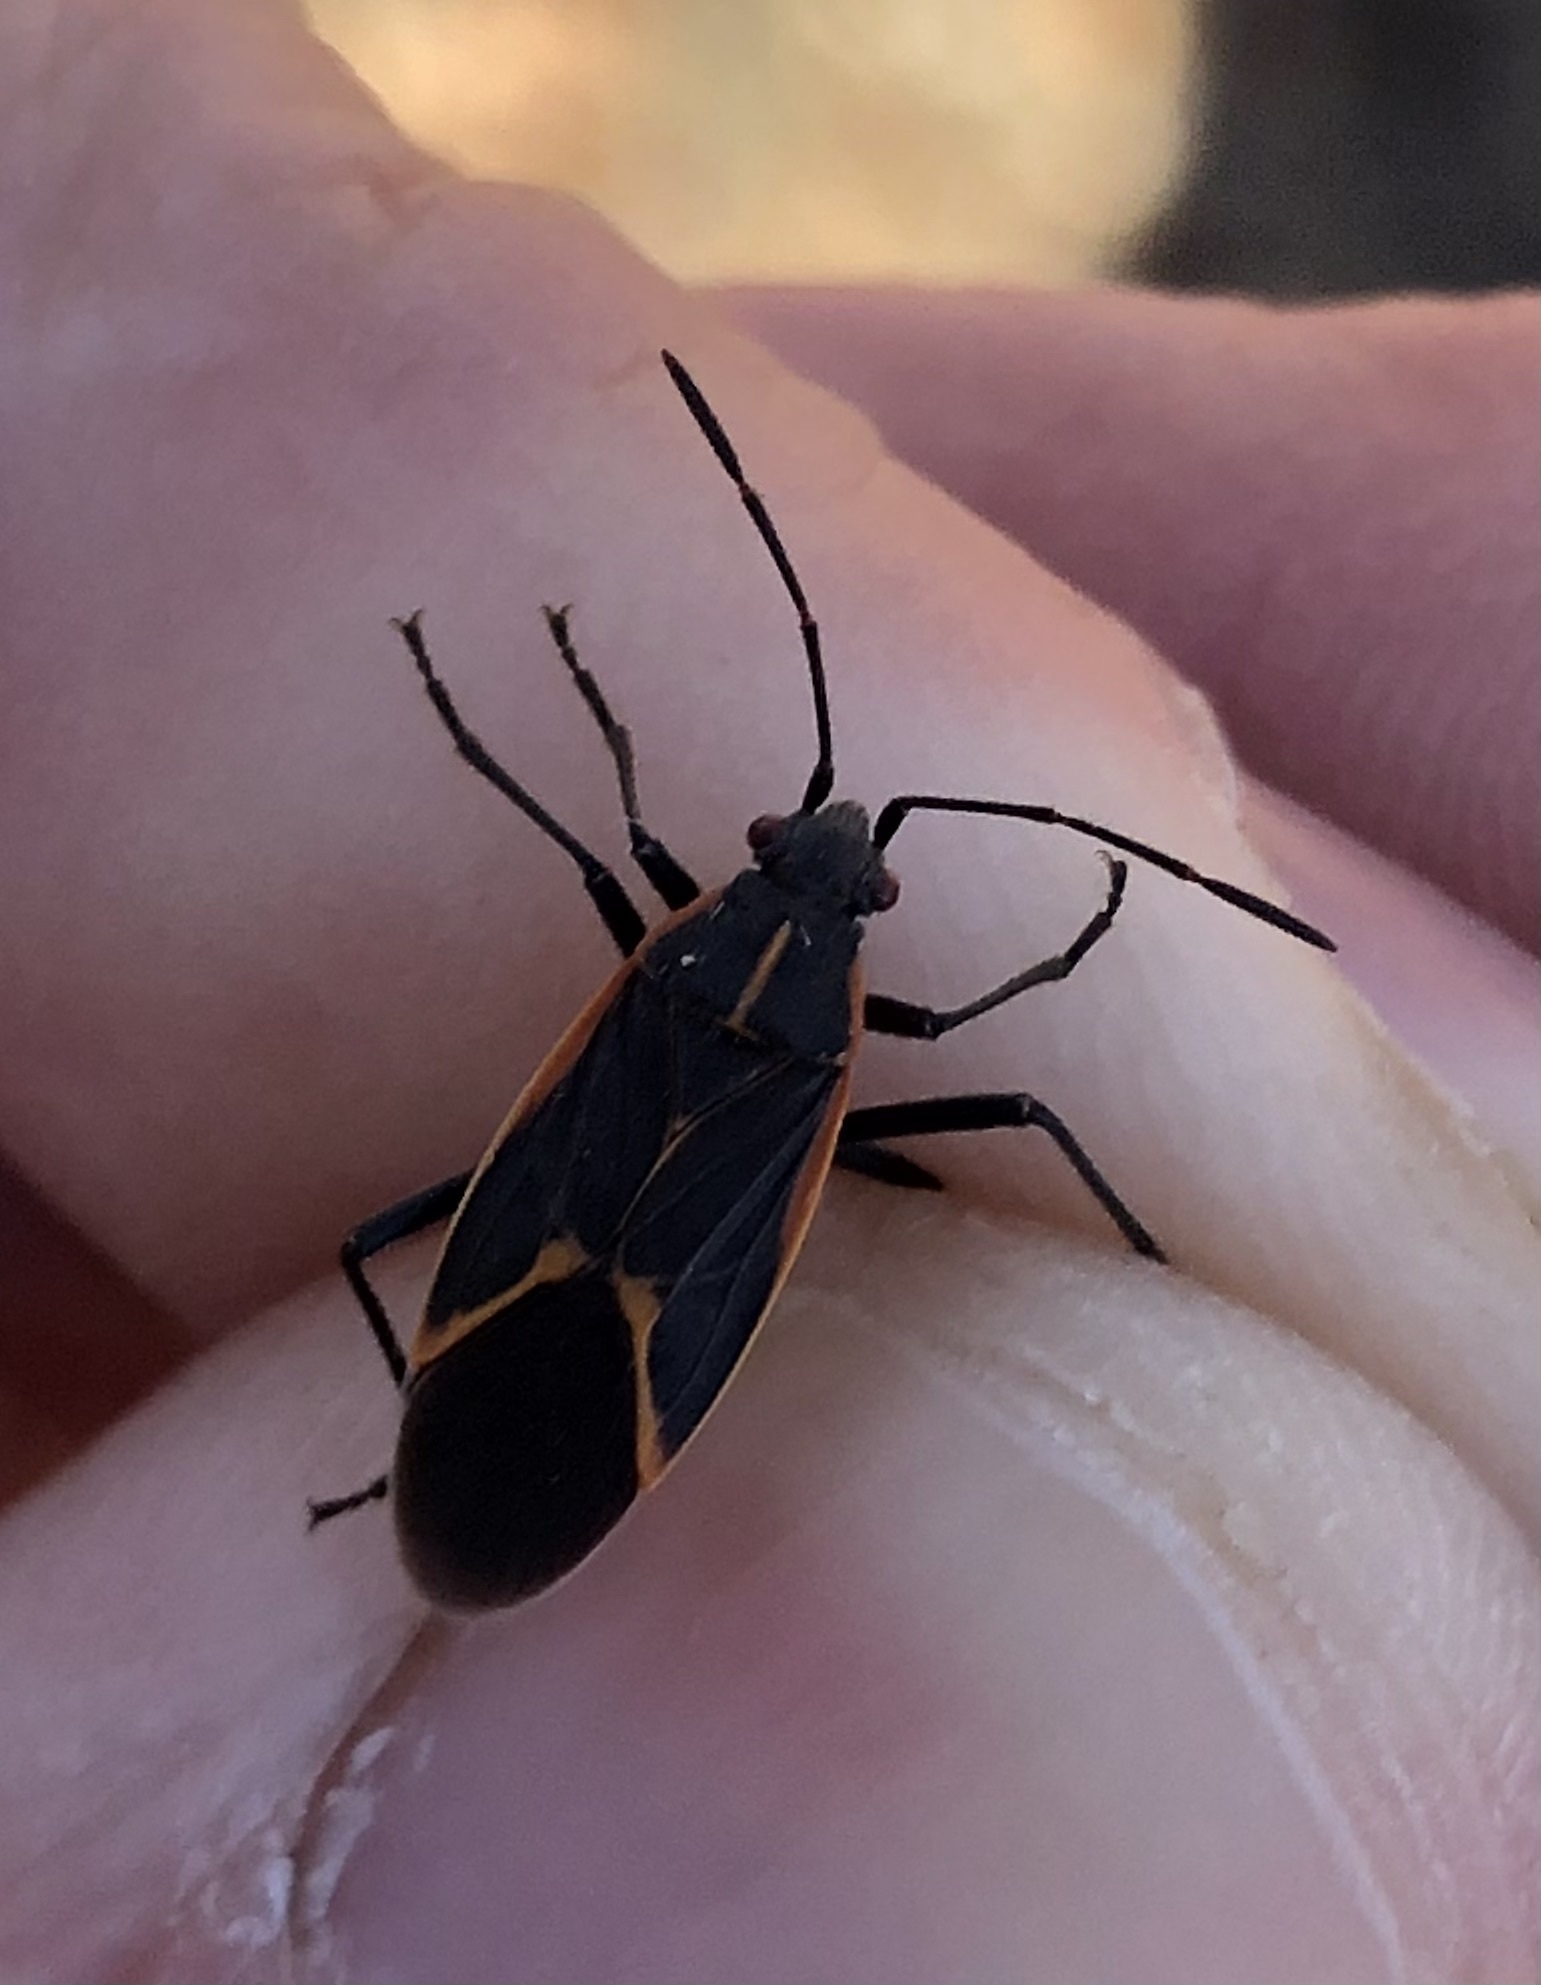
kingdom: Animalia
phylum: Arthropoda
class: Insecta
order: Hemiptera
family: Rhopalidae
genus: Boisea
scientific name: Boisea trivittata
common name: Boxelder bug
